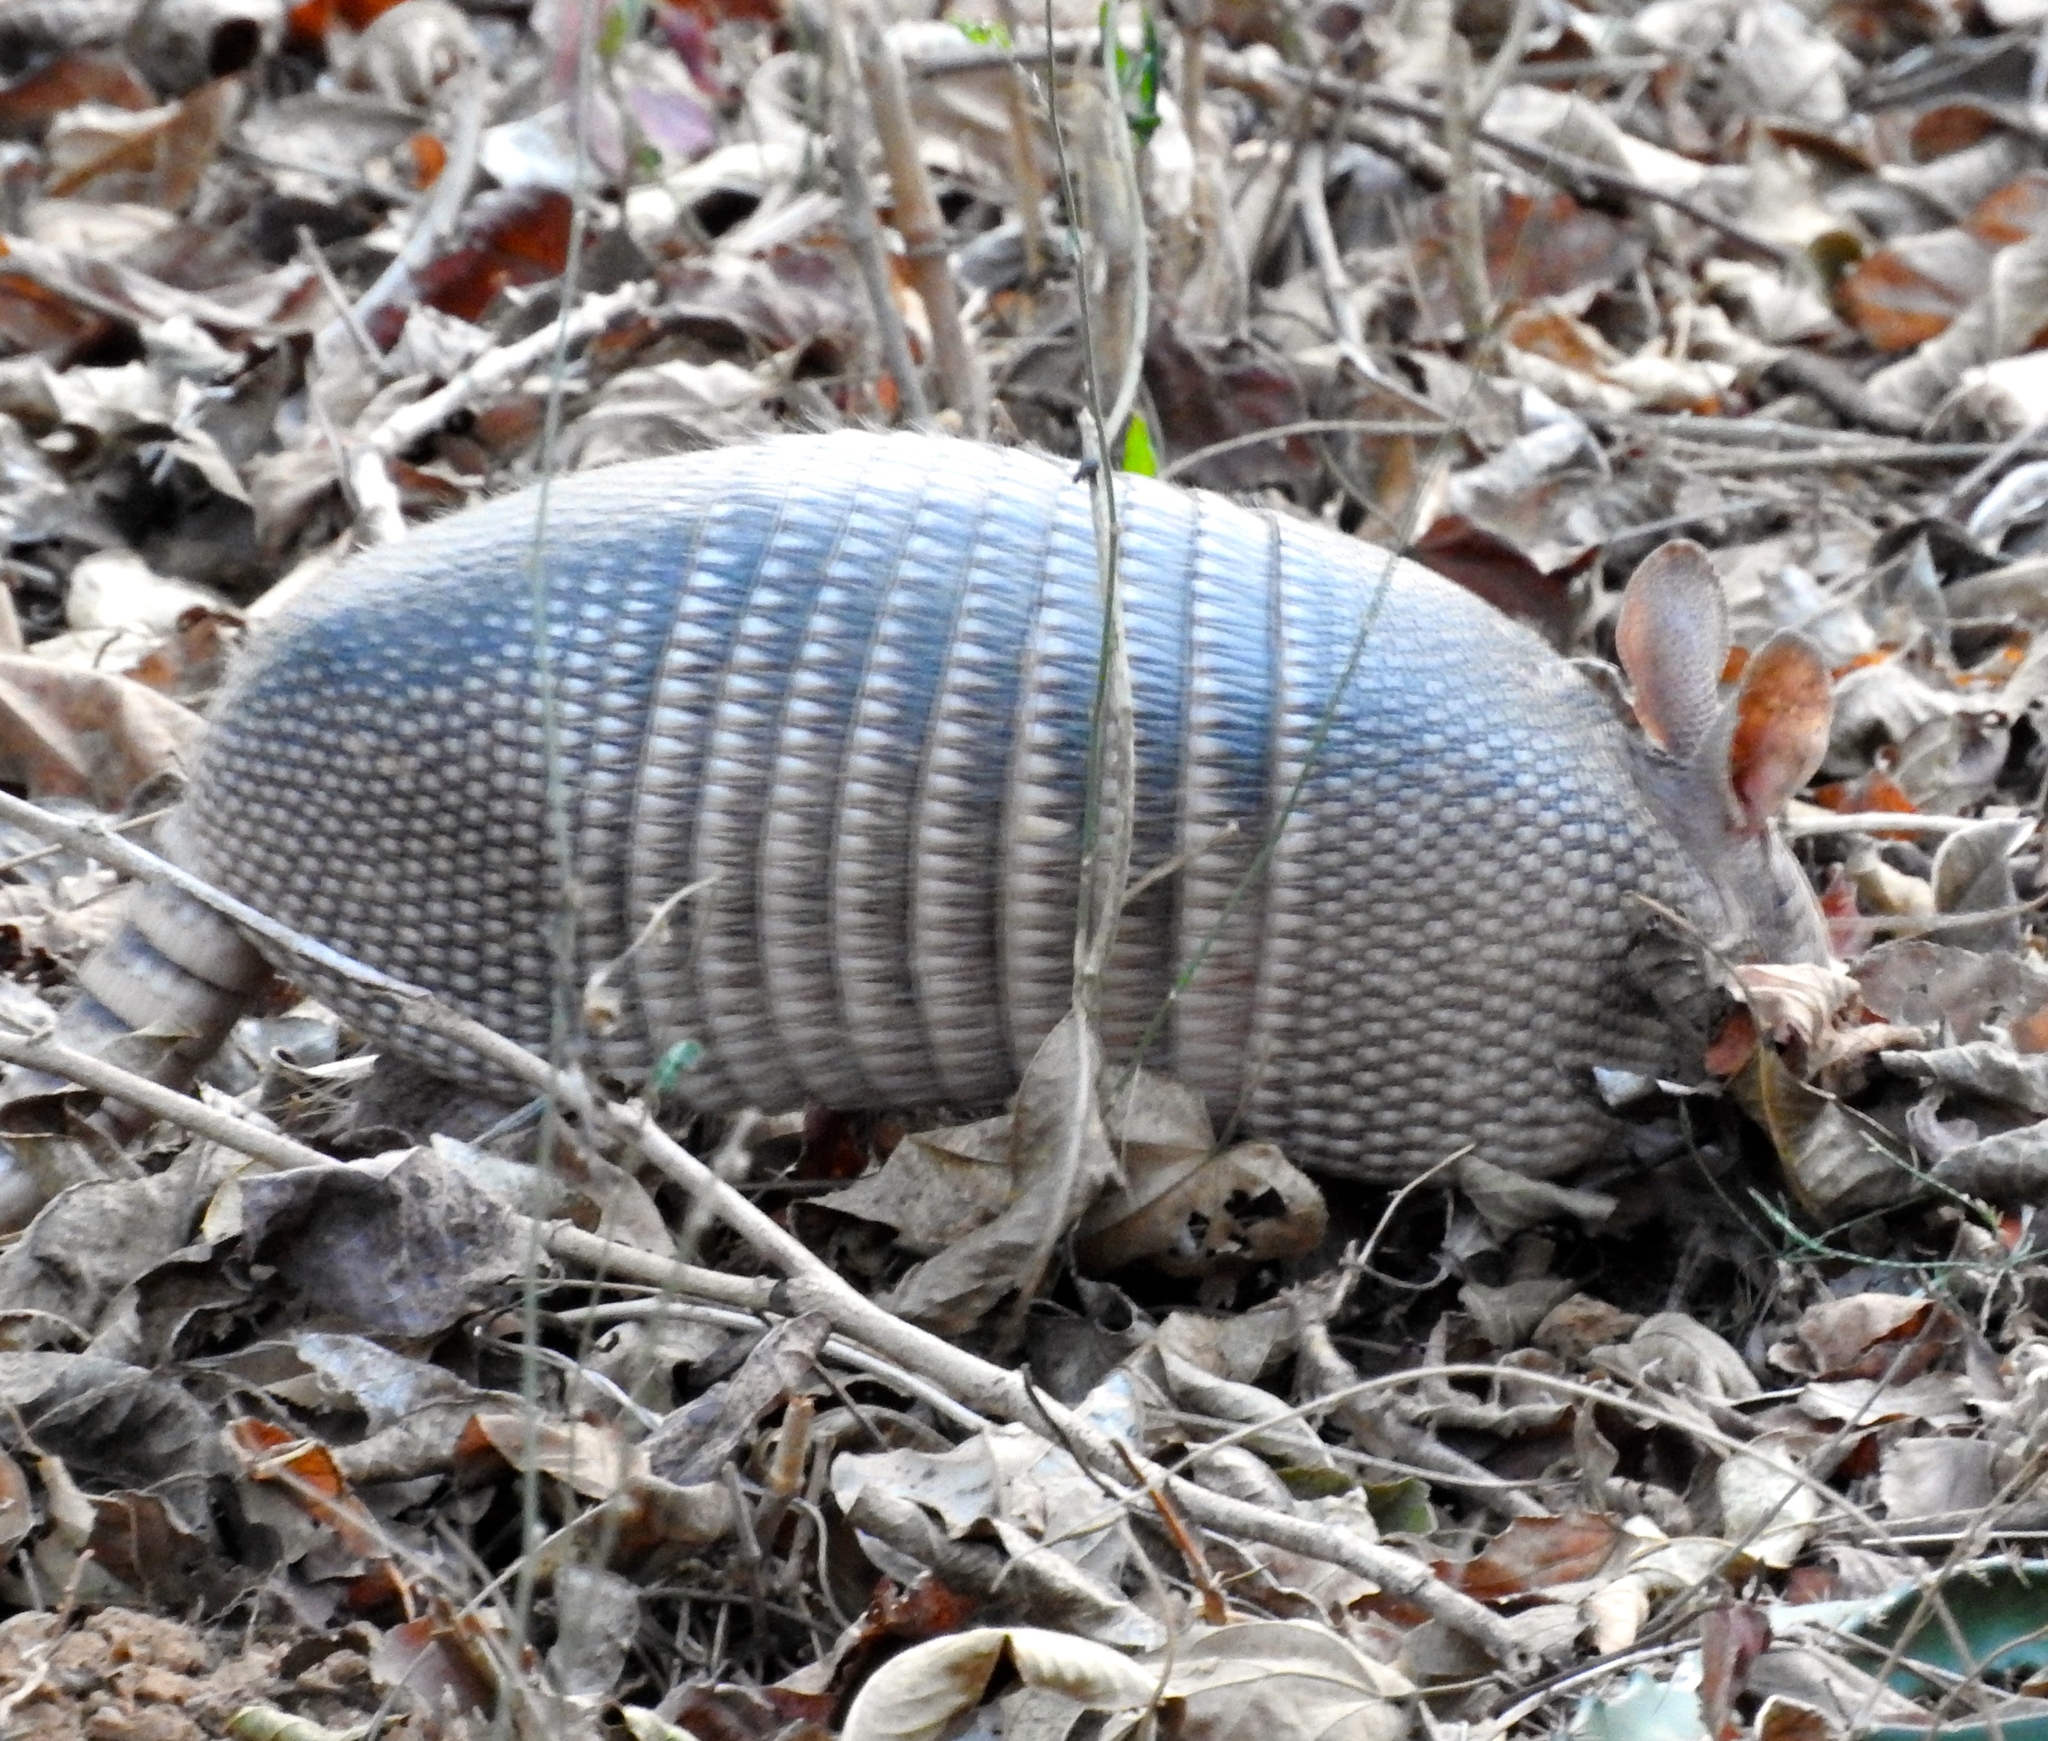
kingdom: Animalia
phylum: Chordata
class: Mammalia
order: Cingulata
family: Dasypodidae
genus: Dasypus
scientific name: Dasypus novemcinctus
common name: Nine-banded armadillo
